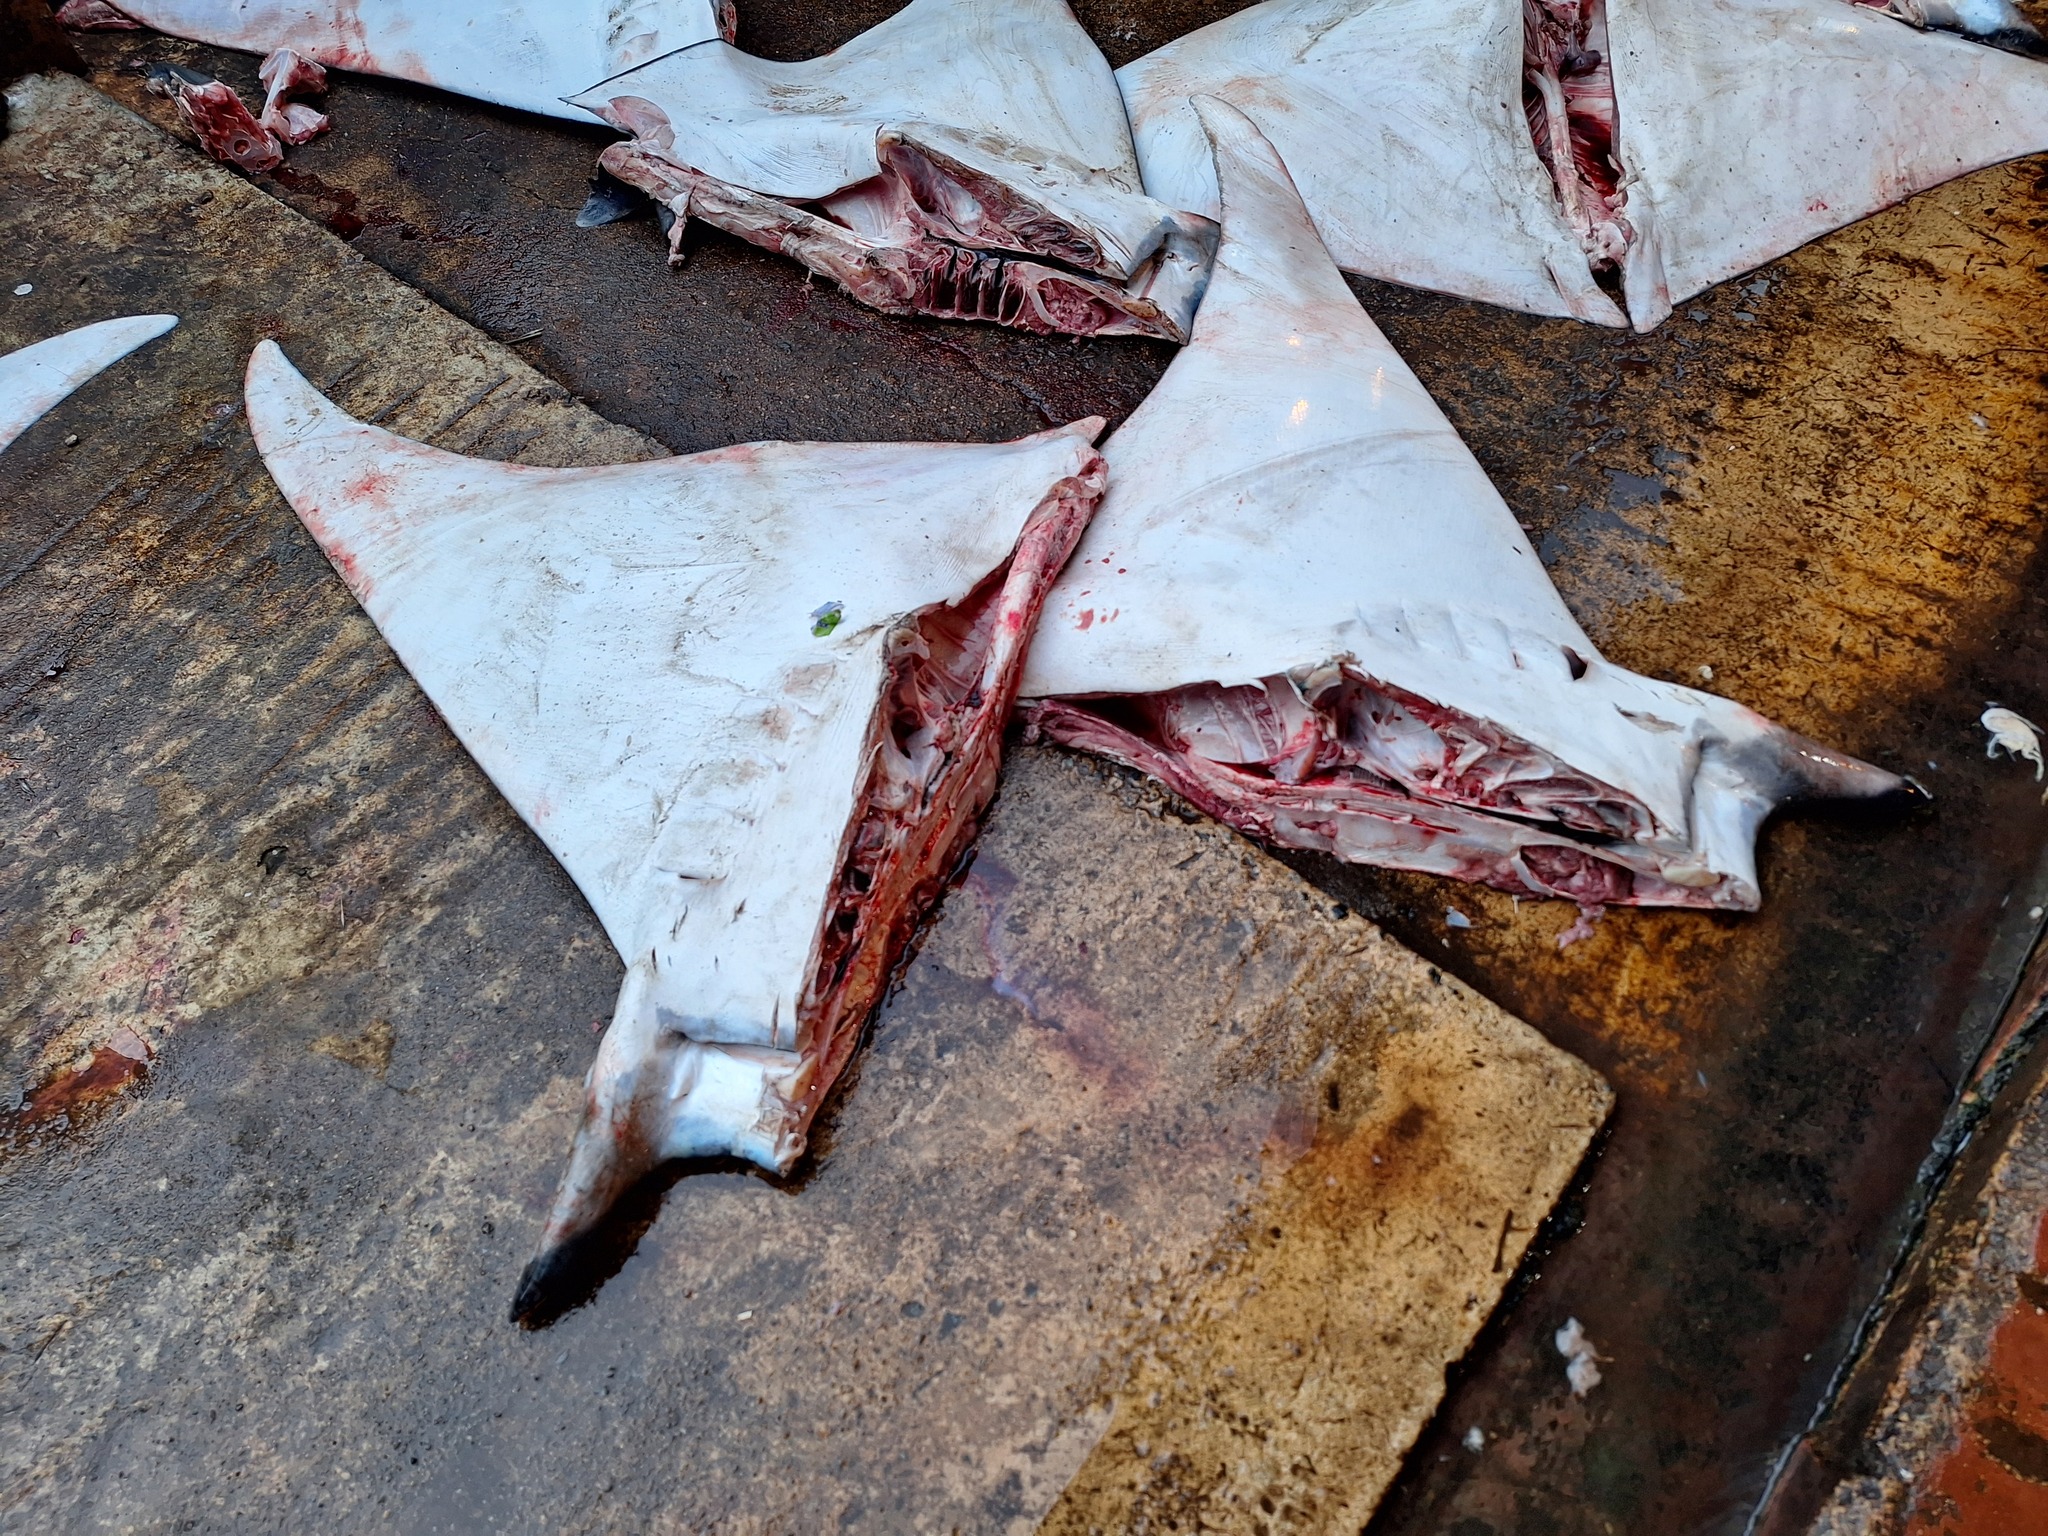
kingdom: Animalia
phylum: Chordata
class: Elasmobranchii
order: Myliobatiformes
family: Myliobatidae
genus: Mobula
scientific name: Mobula mobular
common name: Devil ray
